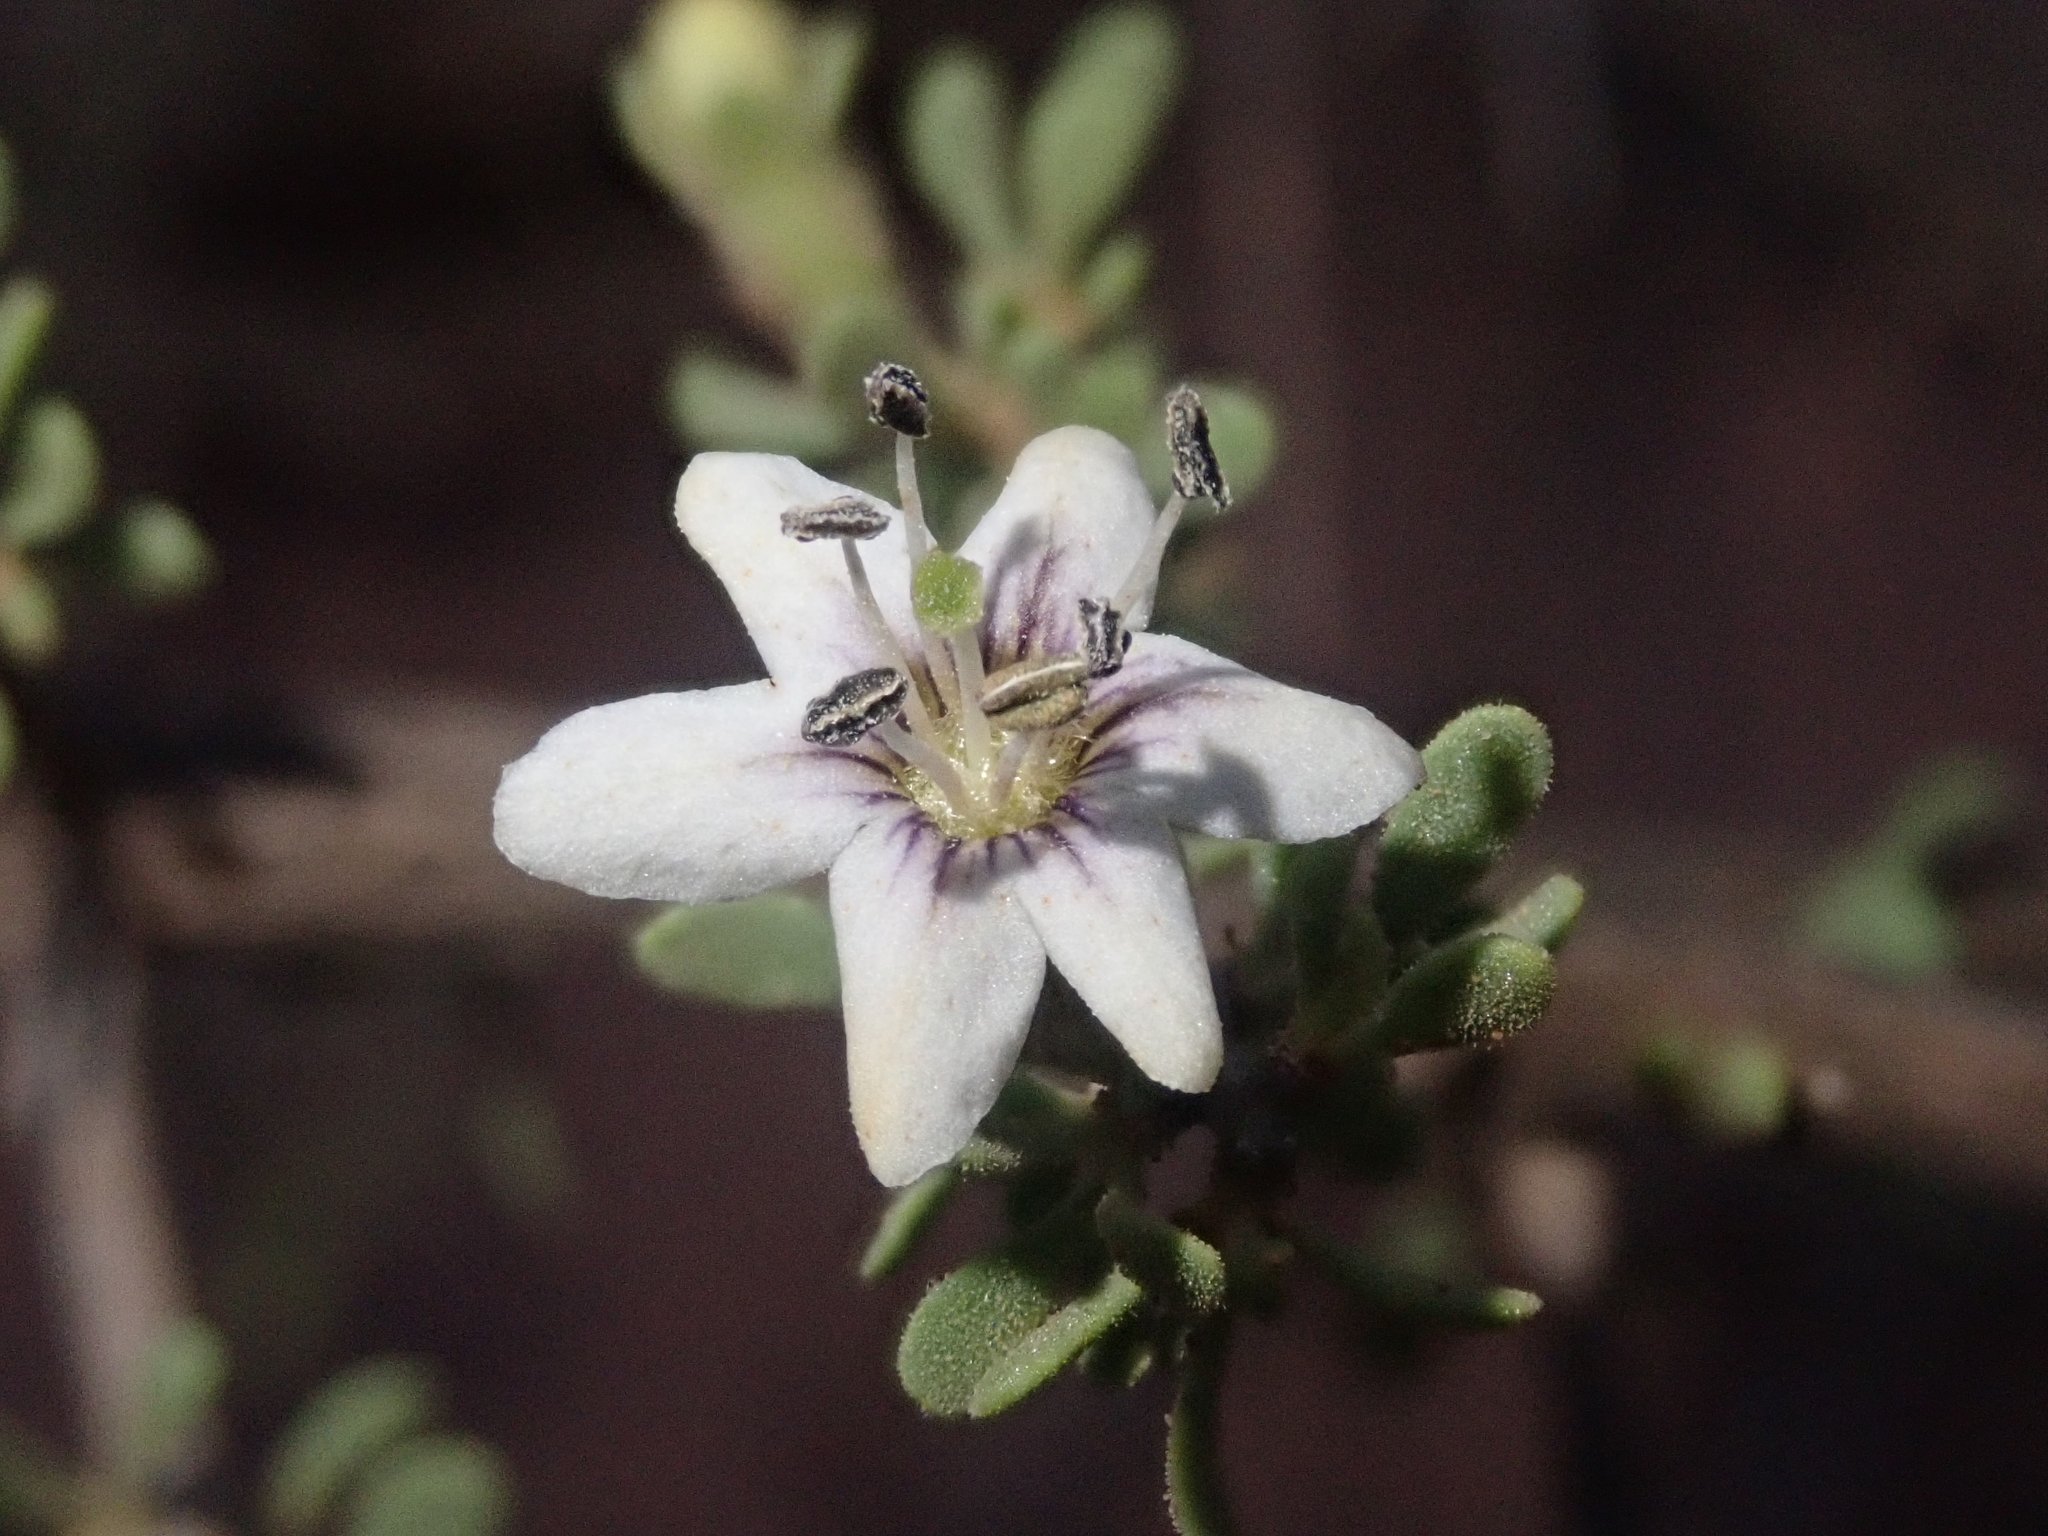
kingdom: Plantae
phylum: Tracheophyta
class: Magnoliopsida
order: Solanales
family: Solanaceae
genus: Lycium
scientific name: Lycium infaustum
